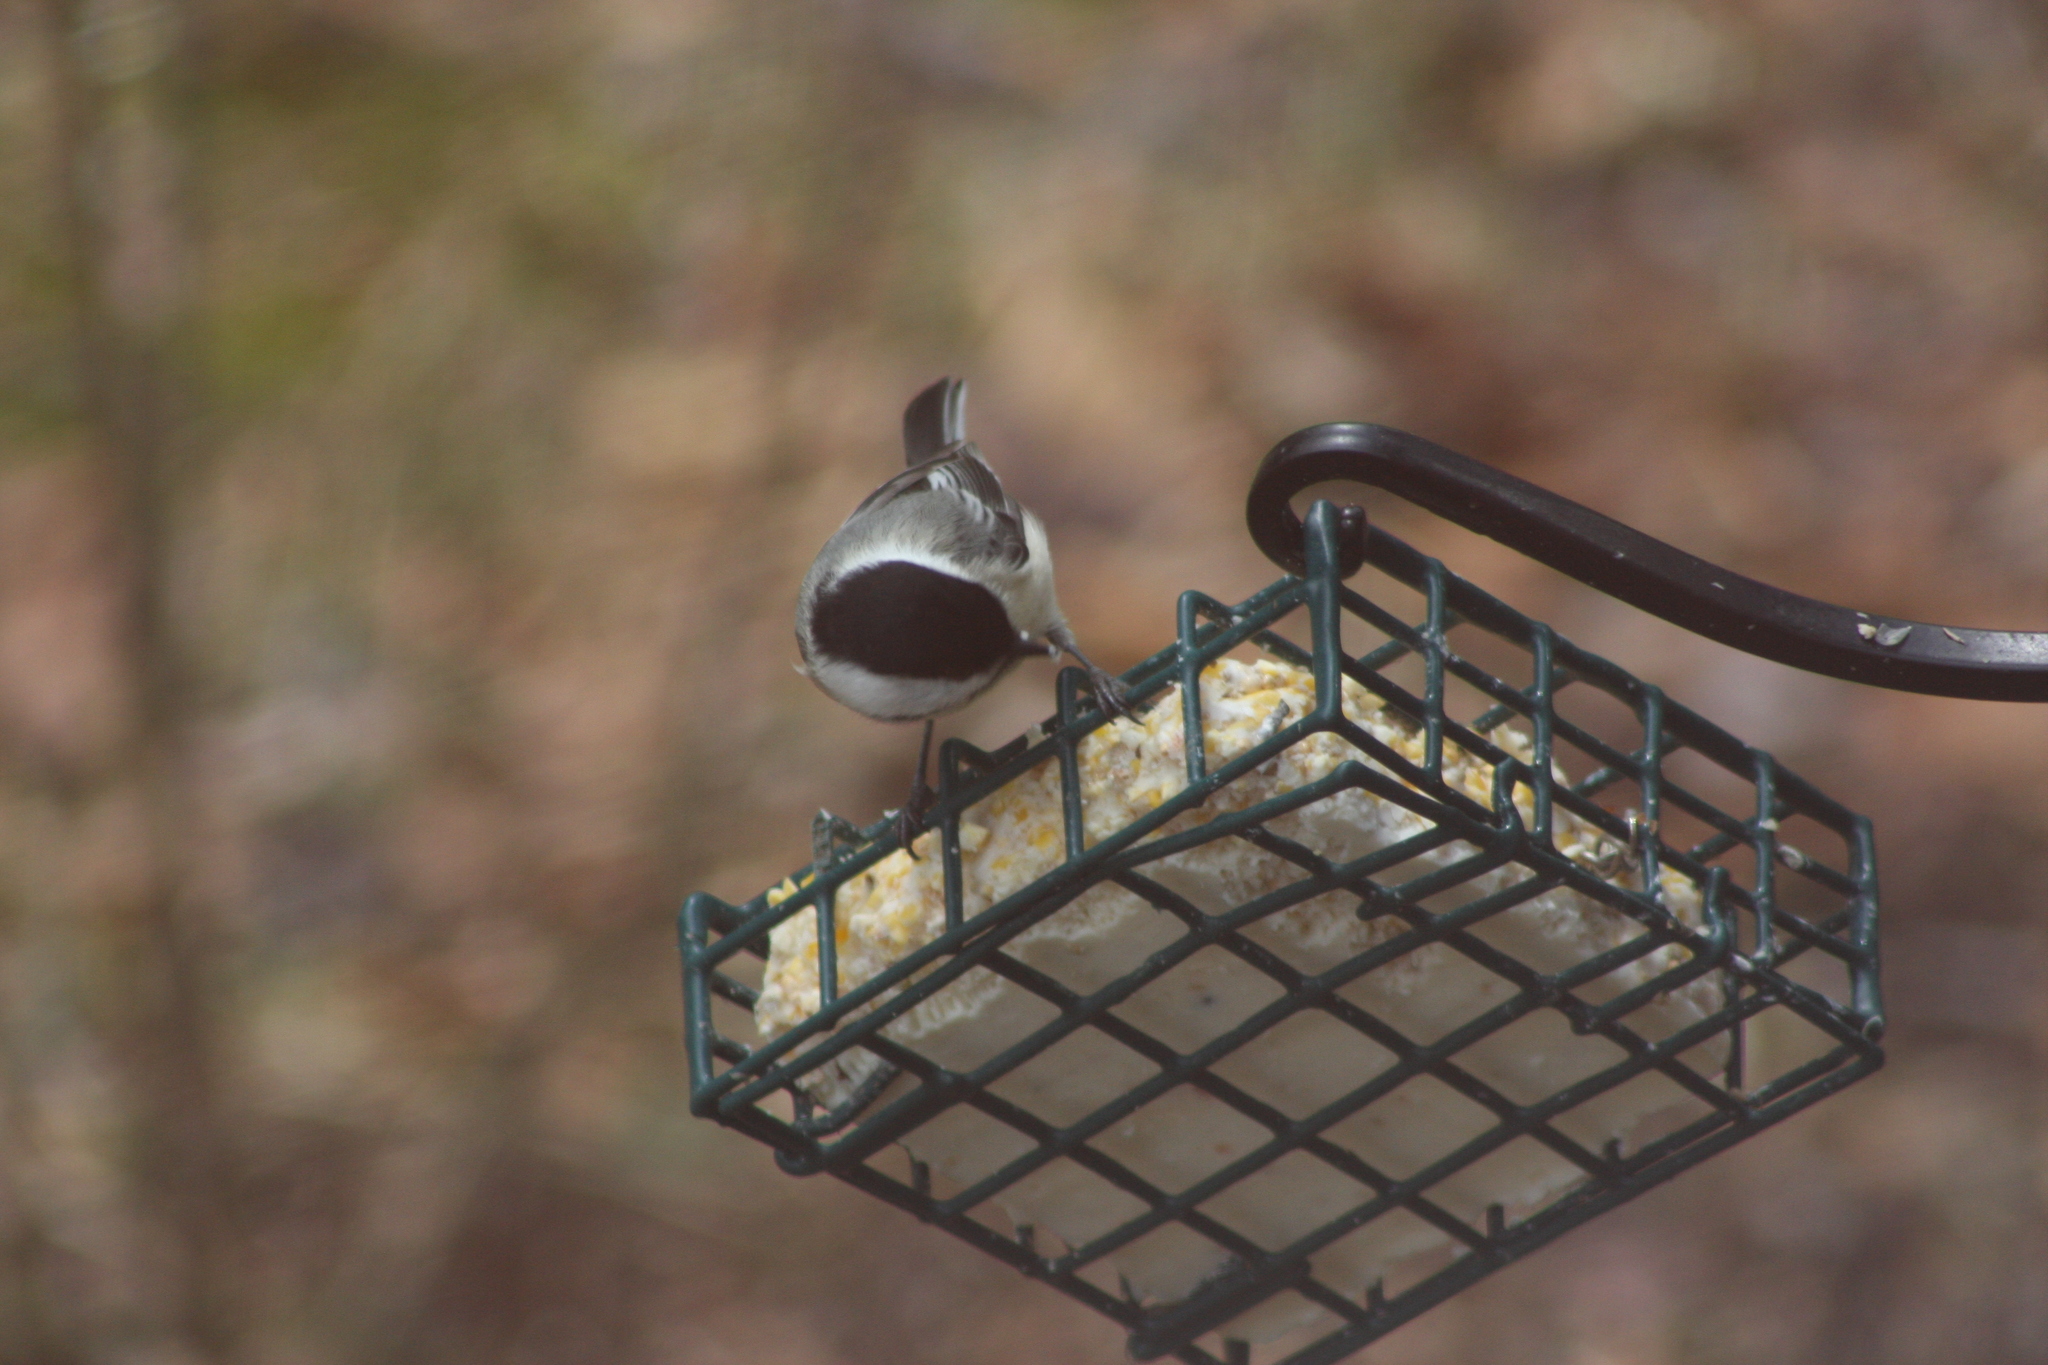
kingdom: Animalia
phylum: Chordata
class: Aves
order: Passeriformes
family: Paridae
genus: Poecile
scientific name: Poecile atricapillus
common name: Black-capped chickadee
